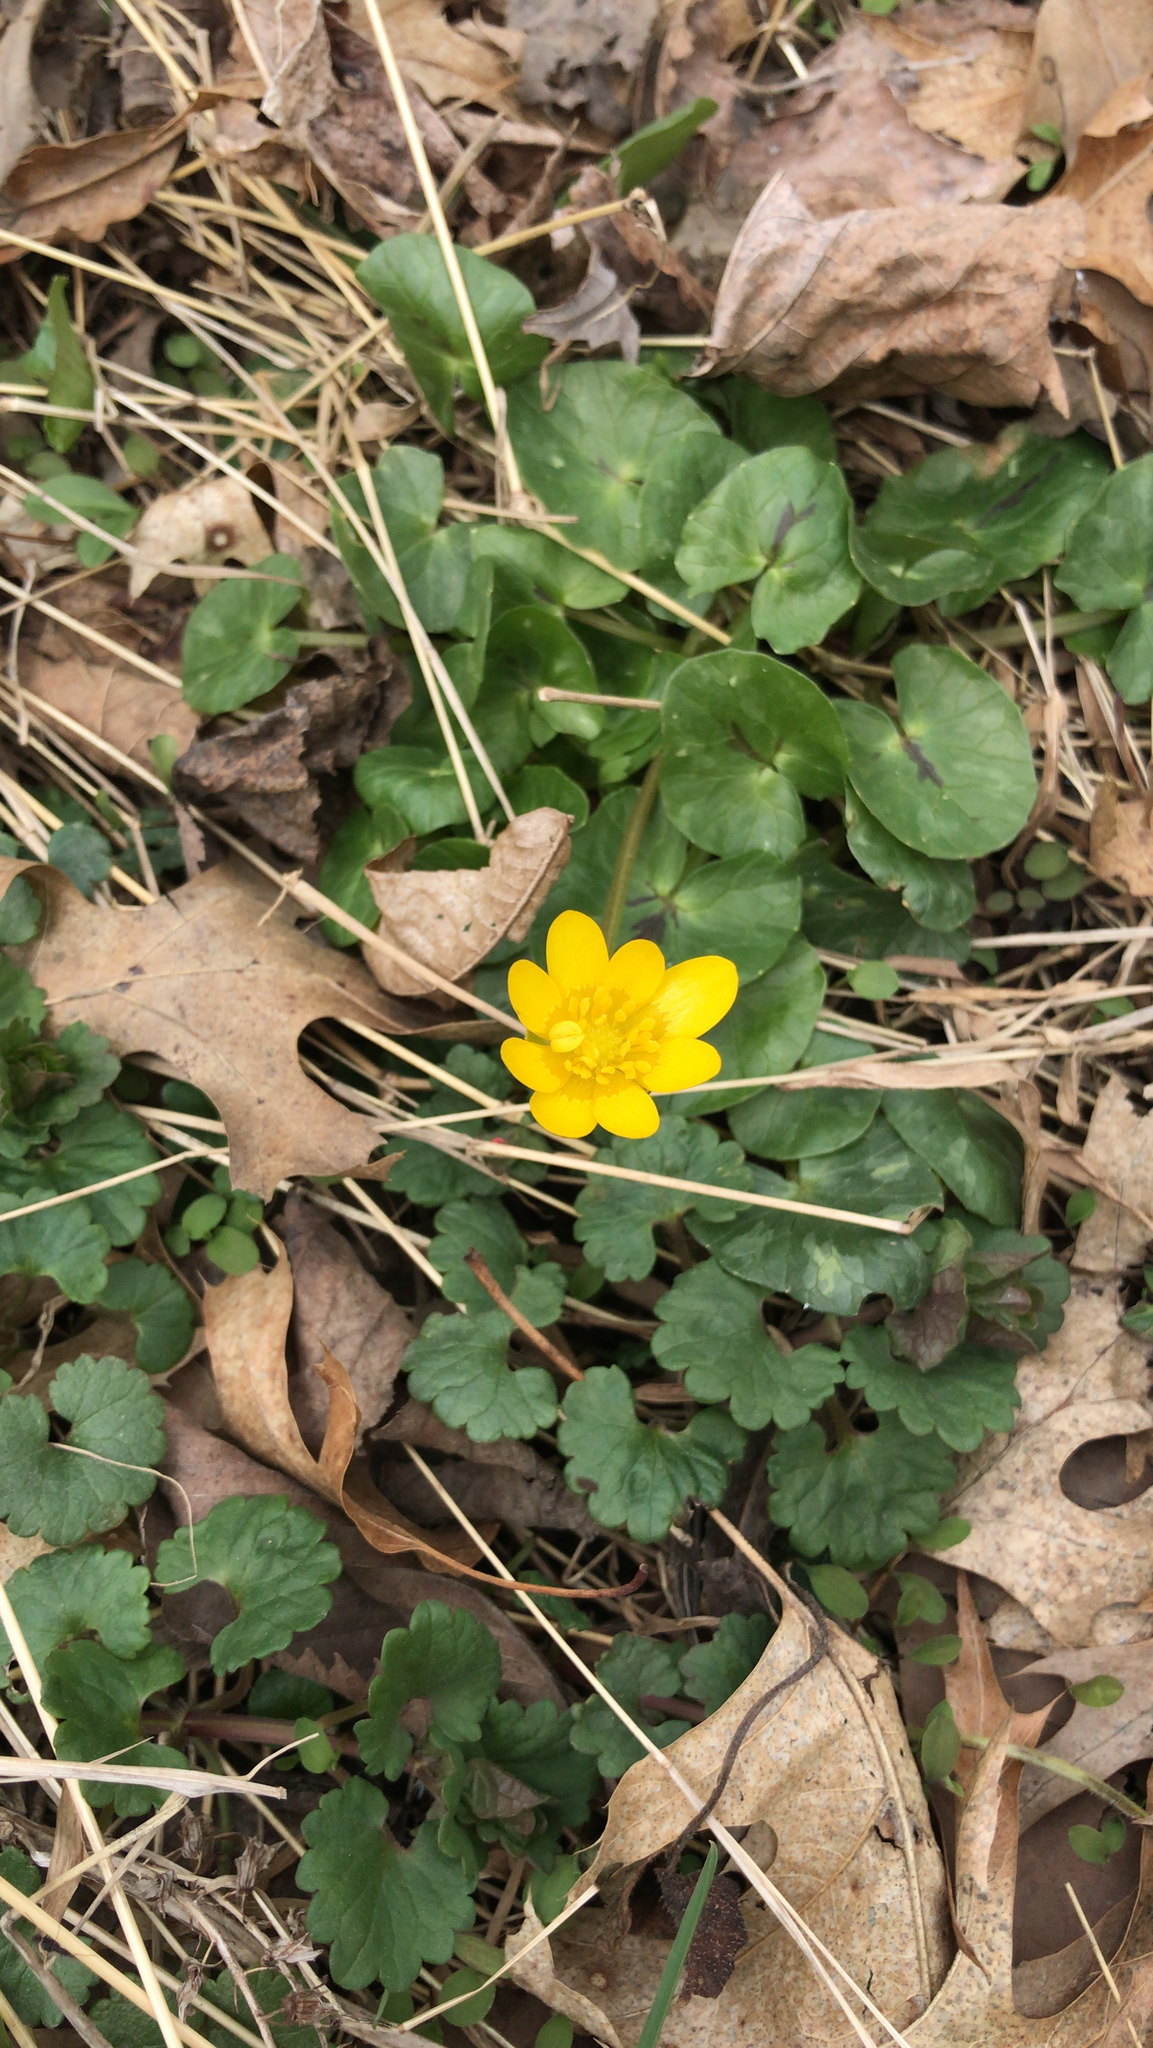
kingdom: Plantae
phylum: Tracheophyta
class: Magnoliopsida
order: Ranunculales
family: Ranunculaceae
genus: Ficaria
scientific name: Ficaria verna
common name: Lesser celandine
